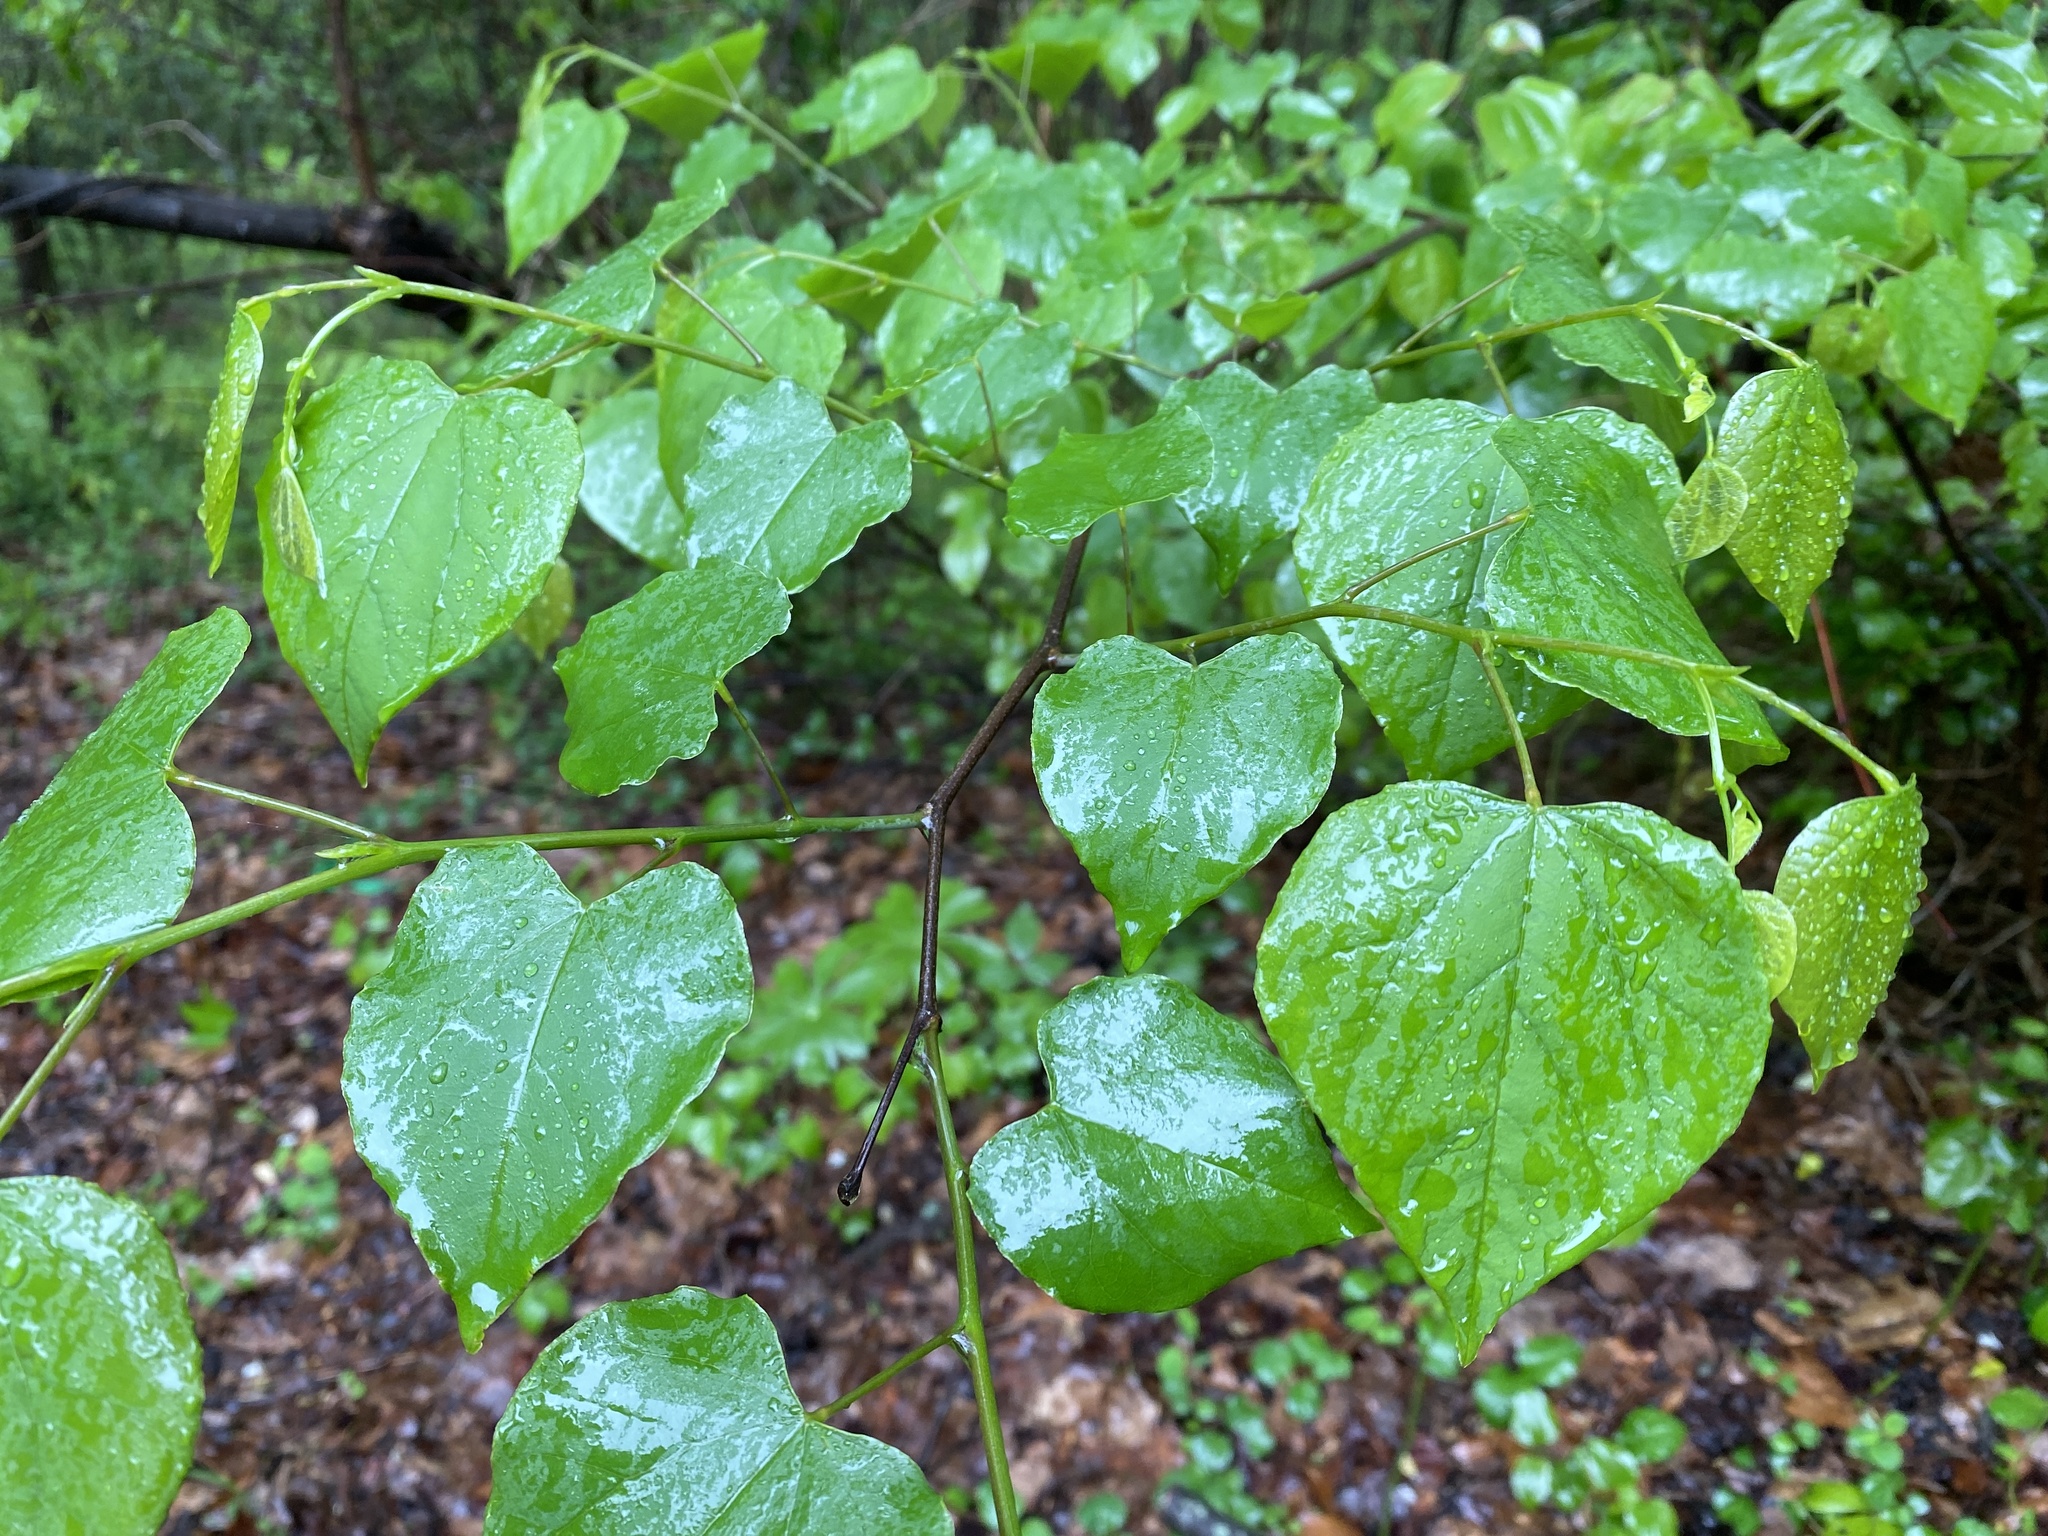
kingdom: Plantae
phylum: Tracheophyta
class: Magnoliopsida
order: Fabales
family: Fabaceae
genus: Cercis
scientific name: Cercis canadensis
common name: Eastern redbud
